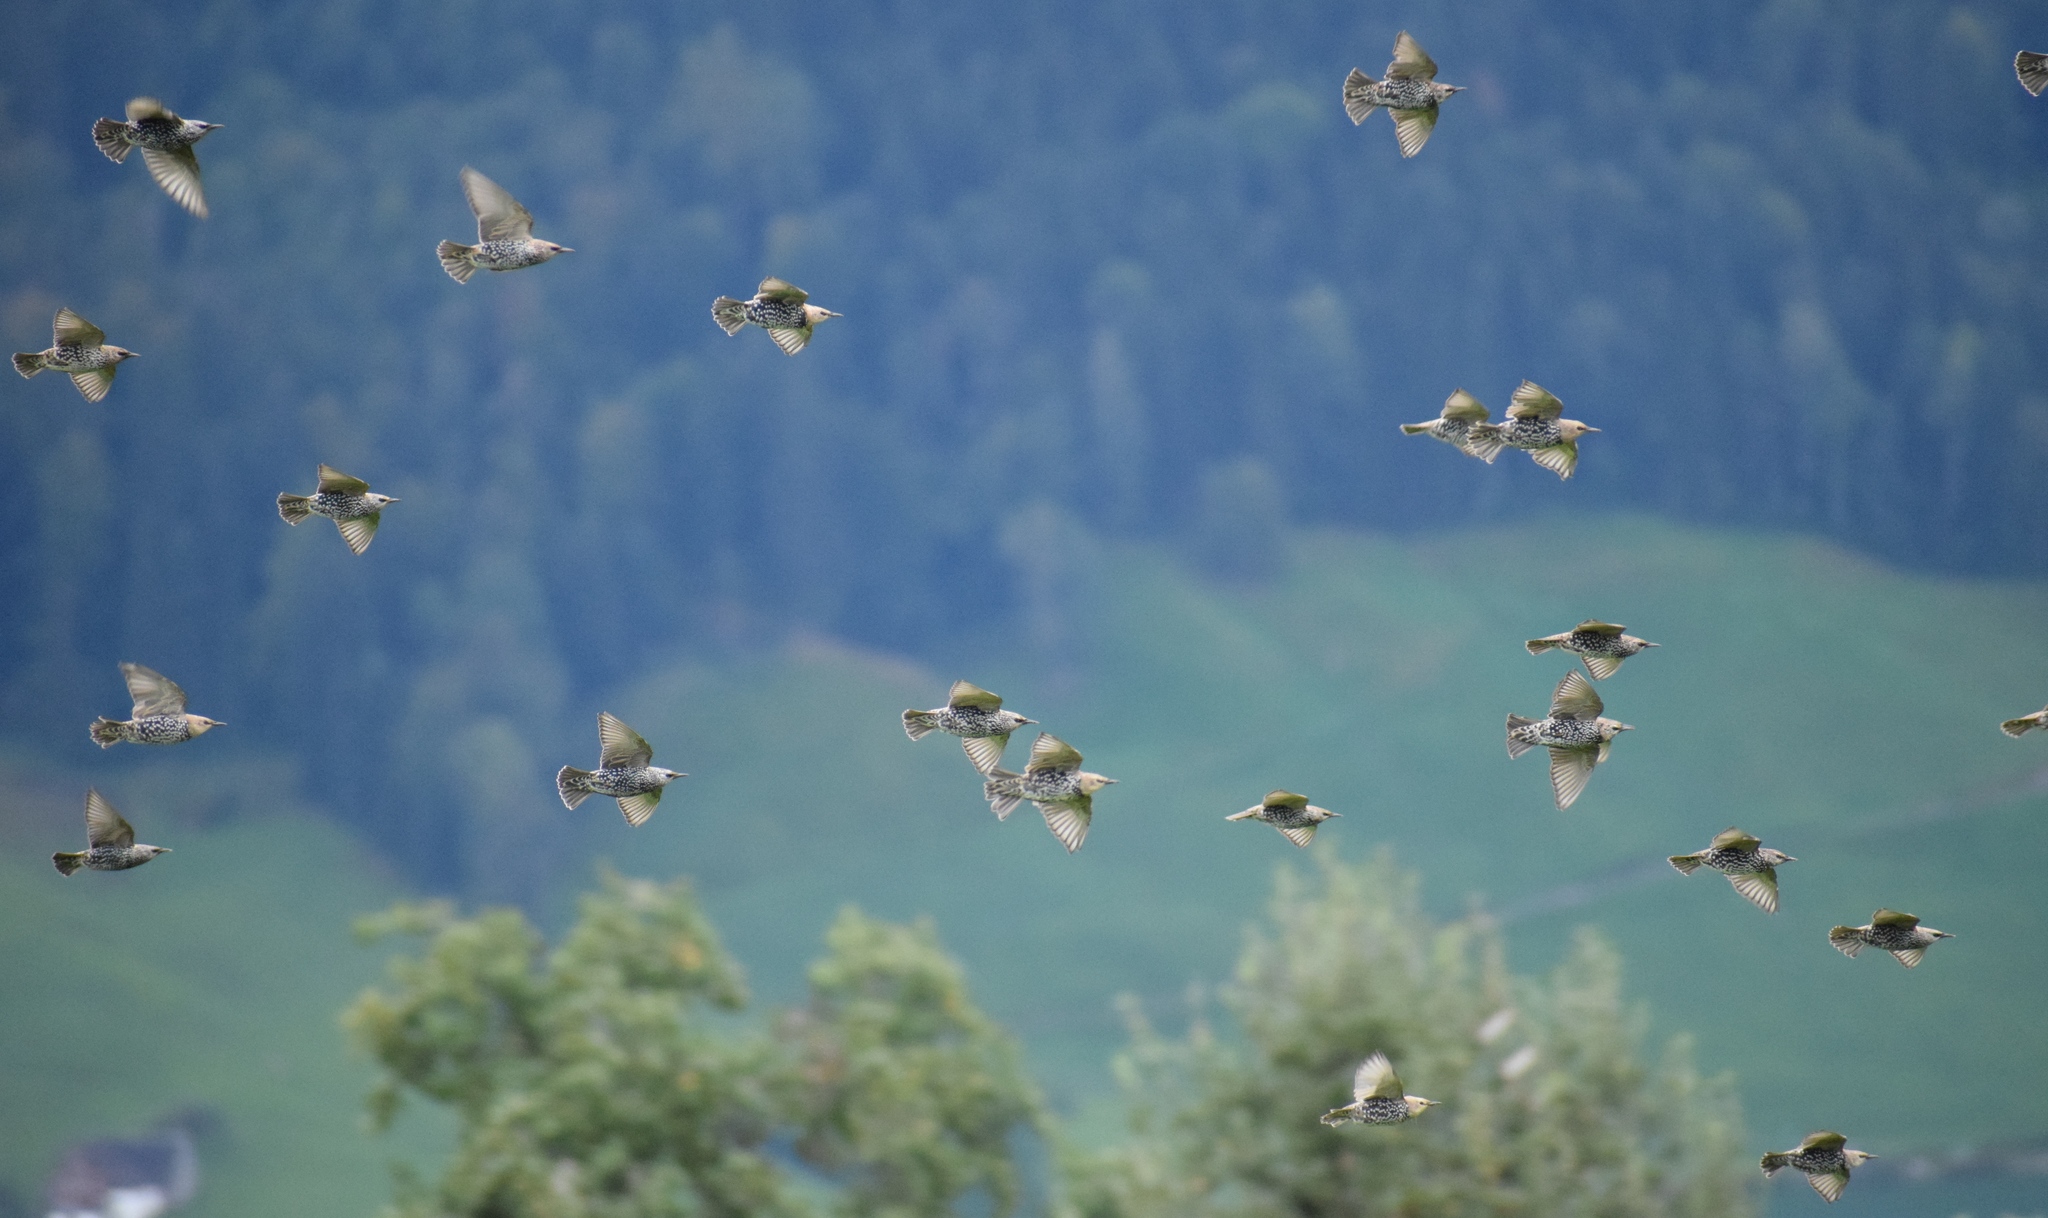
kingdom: Animalia
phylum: Chordata
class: Aves
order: Passeriformes
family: Sturnidae
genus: Sturnus
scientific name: Sturnus vulgaris
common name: Common starling
